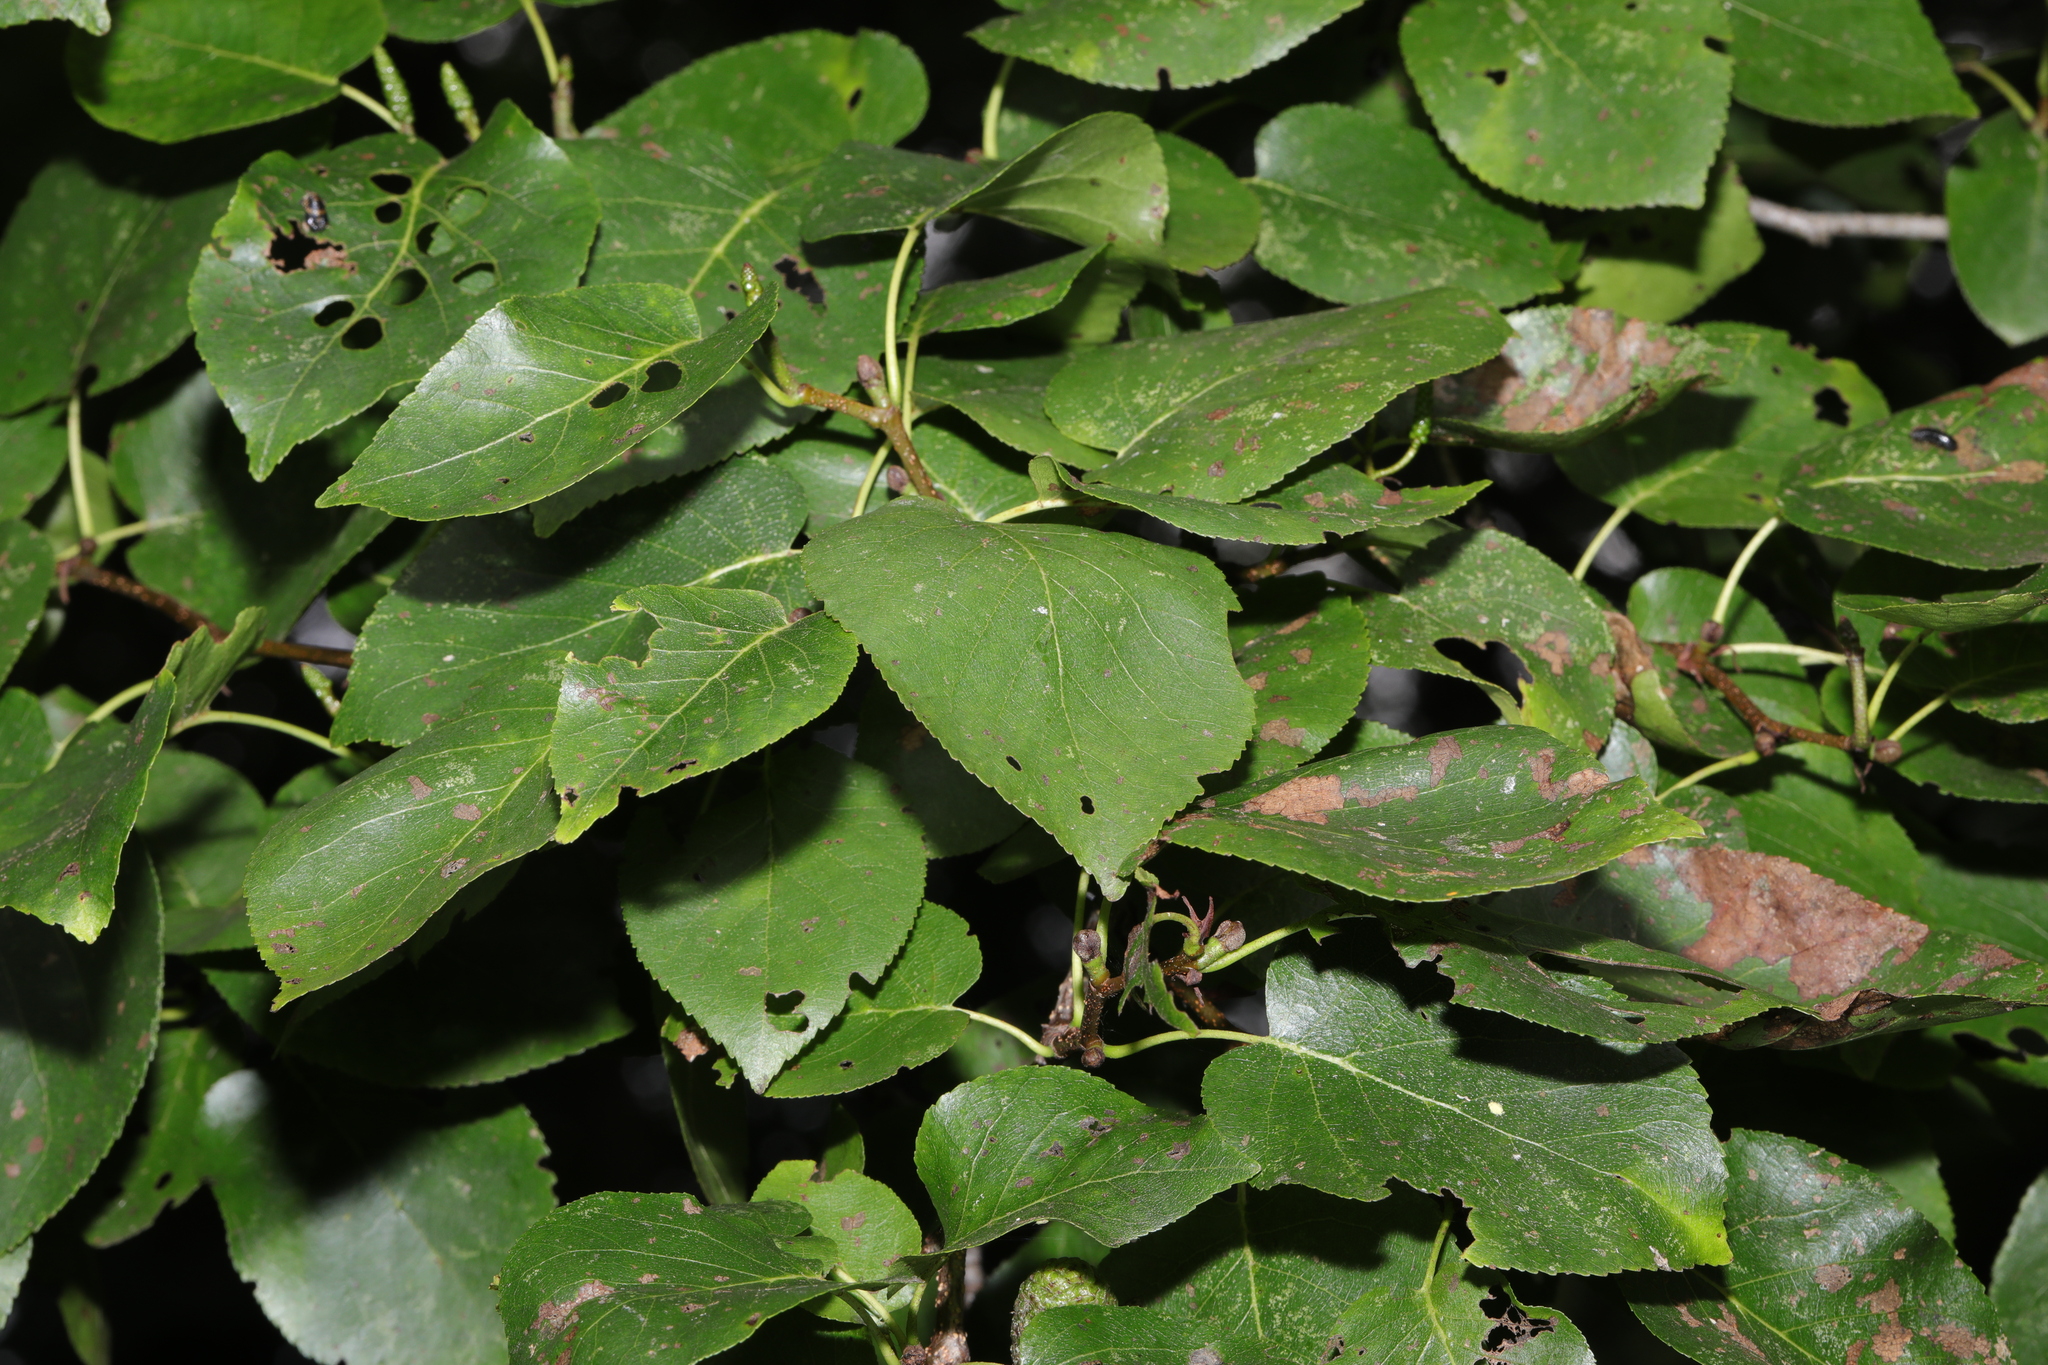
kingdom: Plantae
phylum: Tracheophyta
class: Magnoliopsida
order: Fagales
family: Betulaceae
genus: Alnus
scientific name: Alnus cordata
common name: Italian alder
